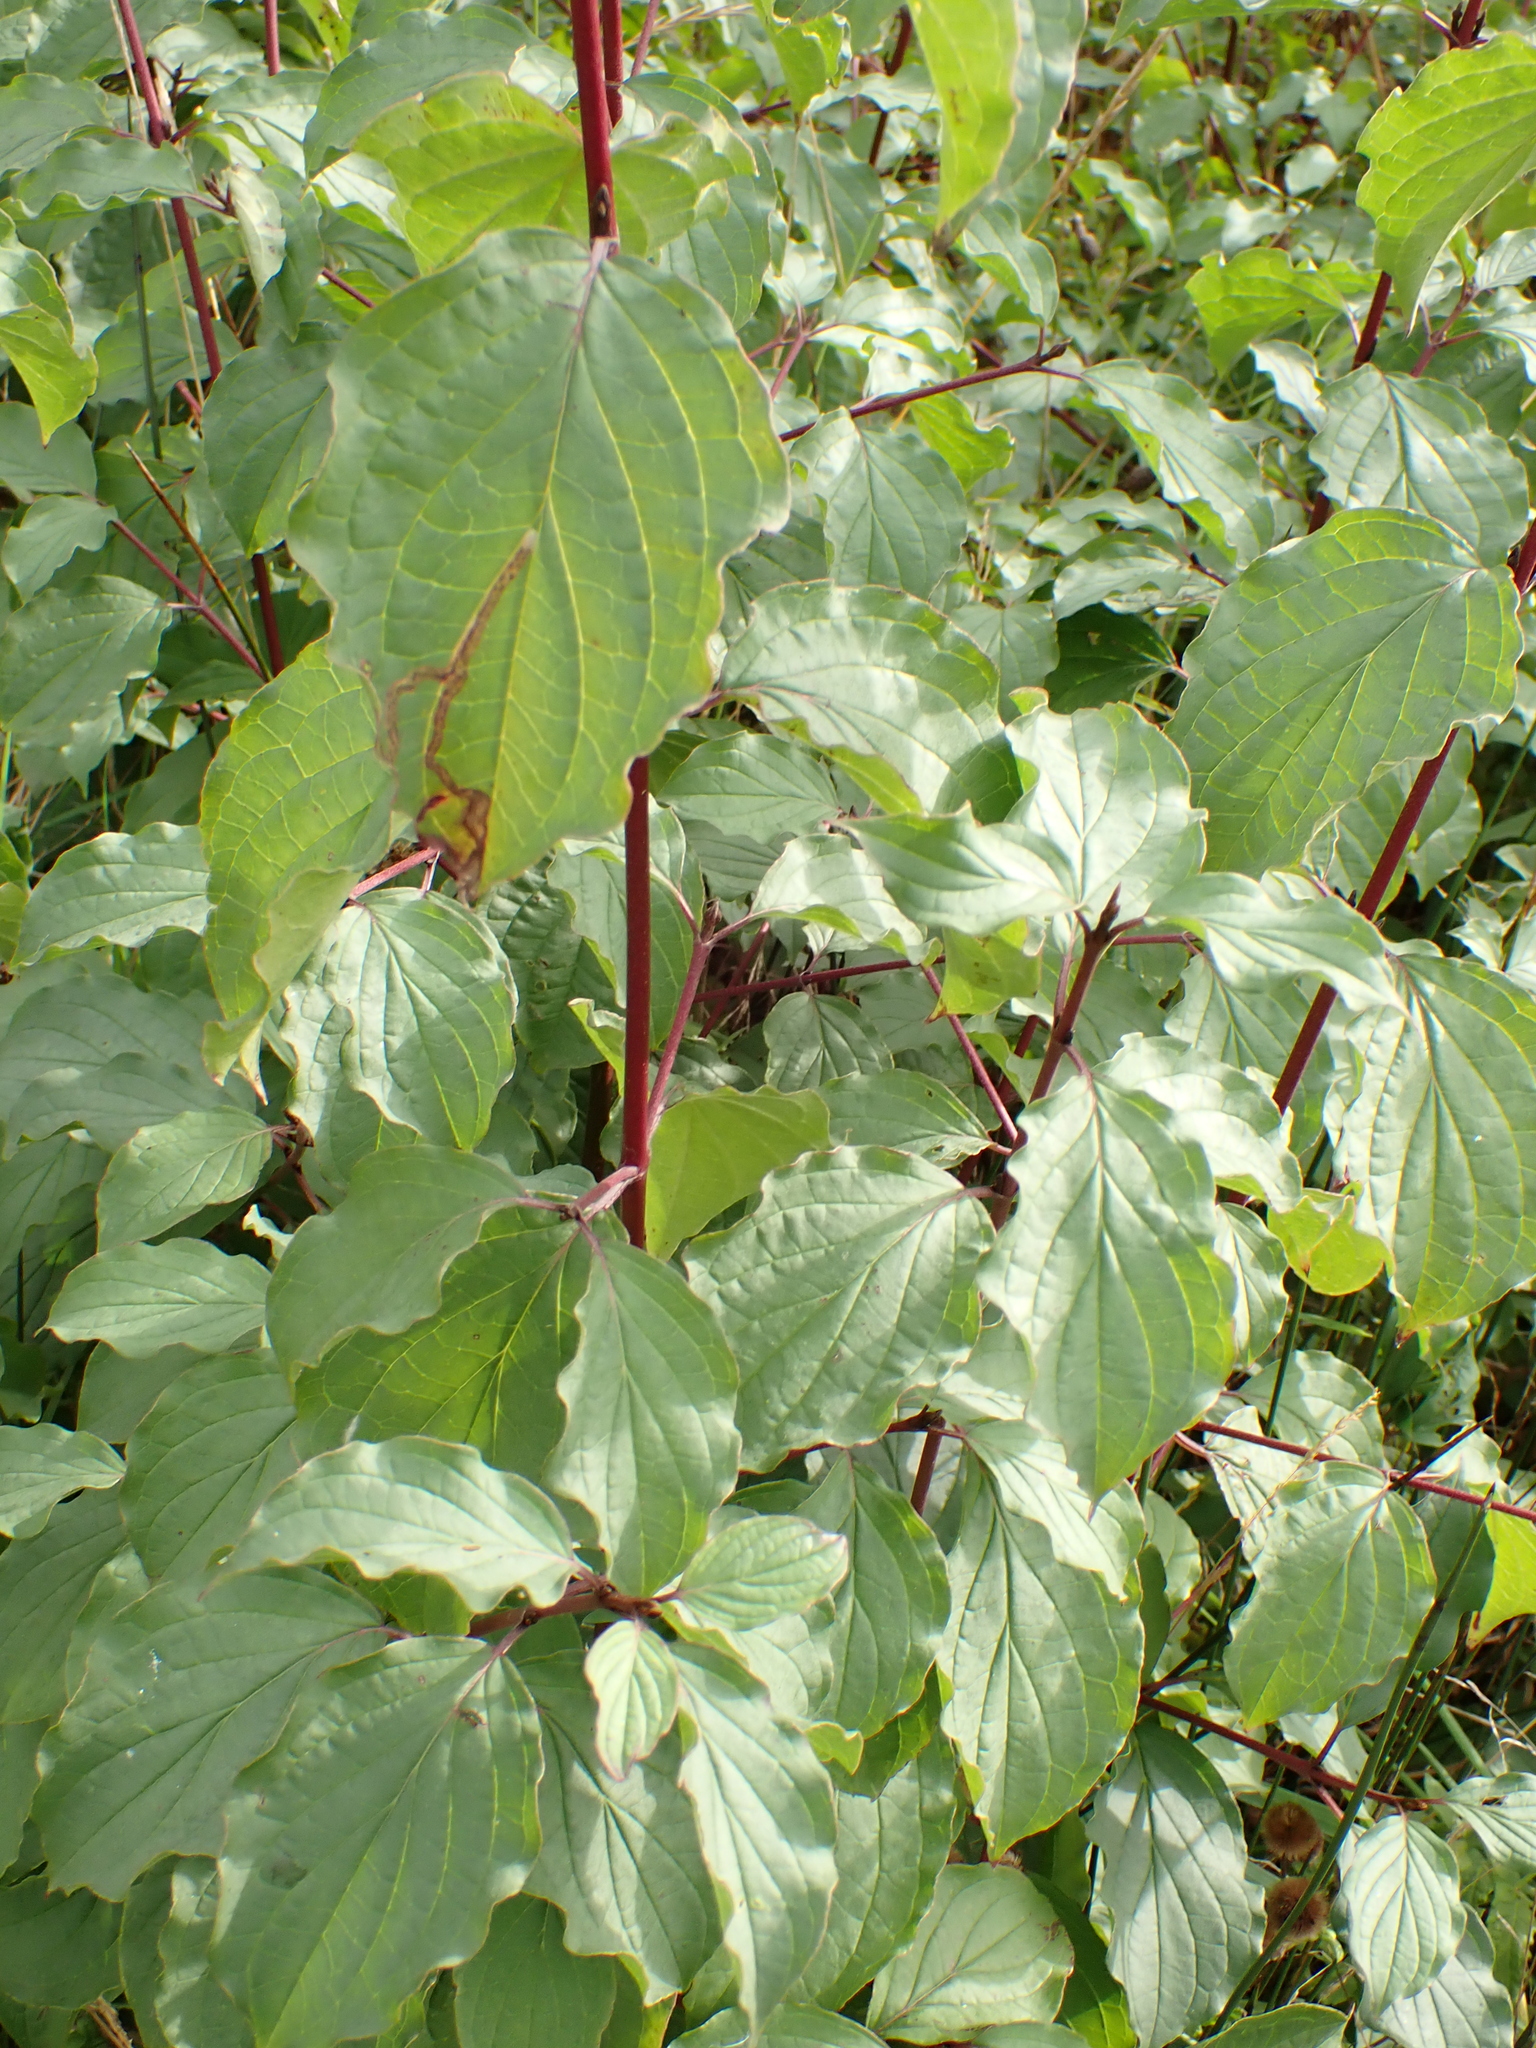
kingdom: Plantae
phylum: Tracheophyta
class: Magnoliopsida
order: Cornales
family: Cornaceae
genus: Cornus
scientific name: Cornus sanguinea
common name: Dogwood
